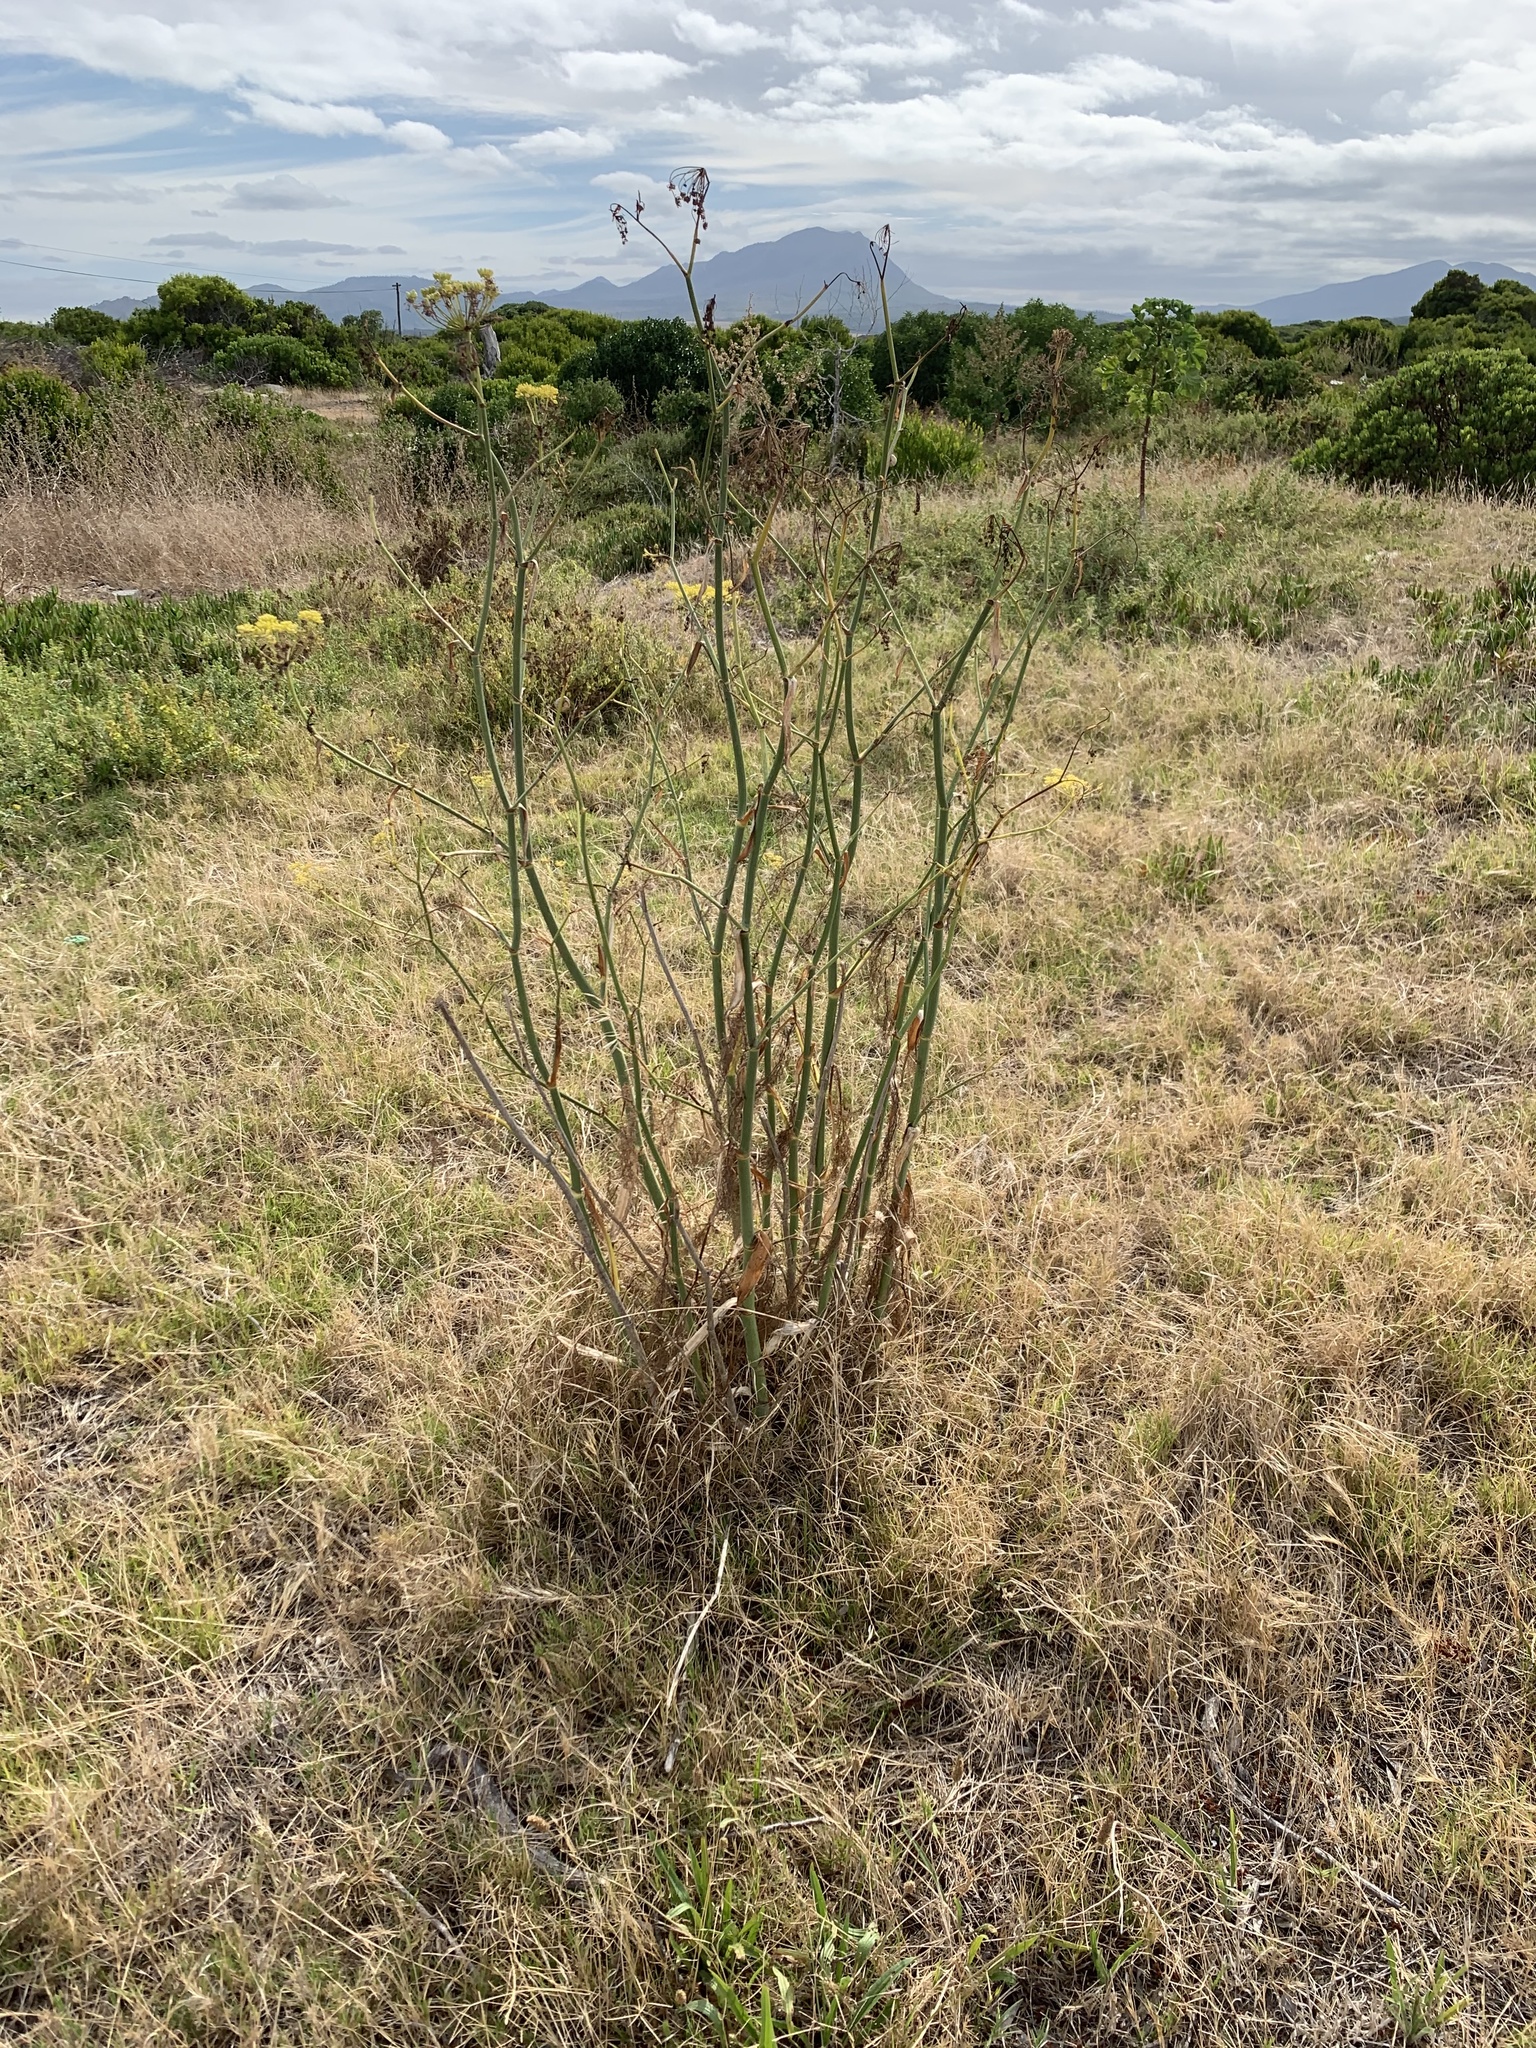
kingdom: Plantae
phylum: Tracheophyta
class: Magnoliopsida
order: Apiales
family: Apiaceae
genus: Foeniculum
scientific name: Foeniculum vulgare
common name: Fennel
